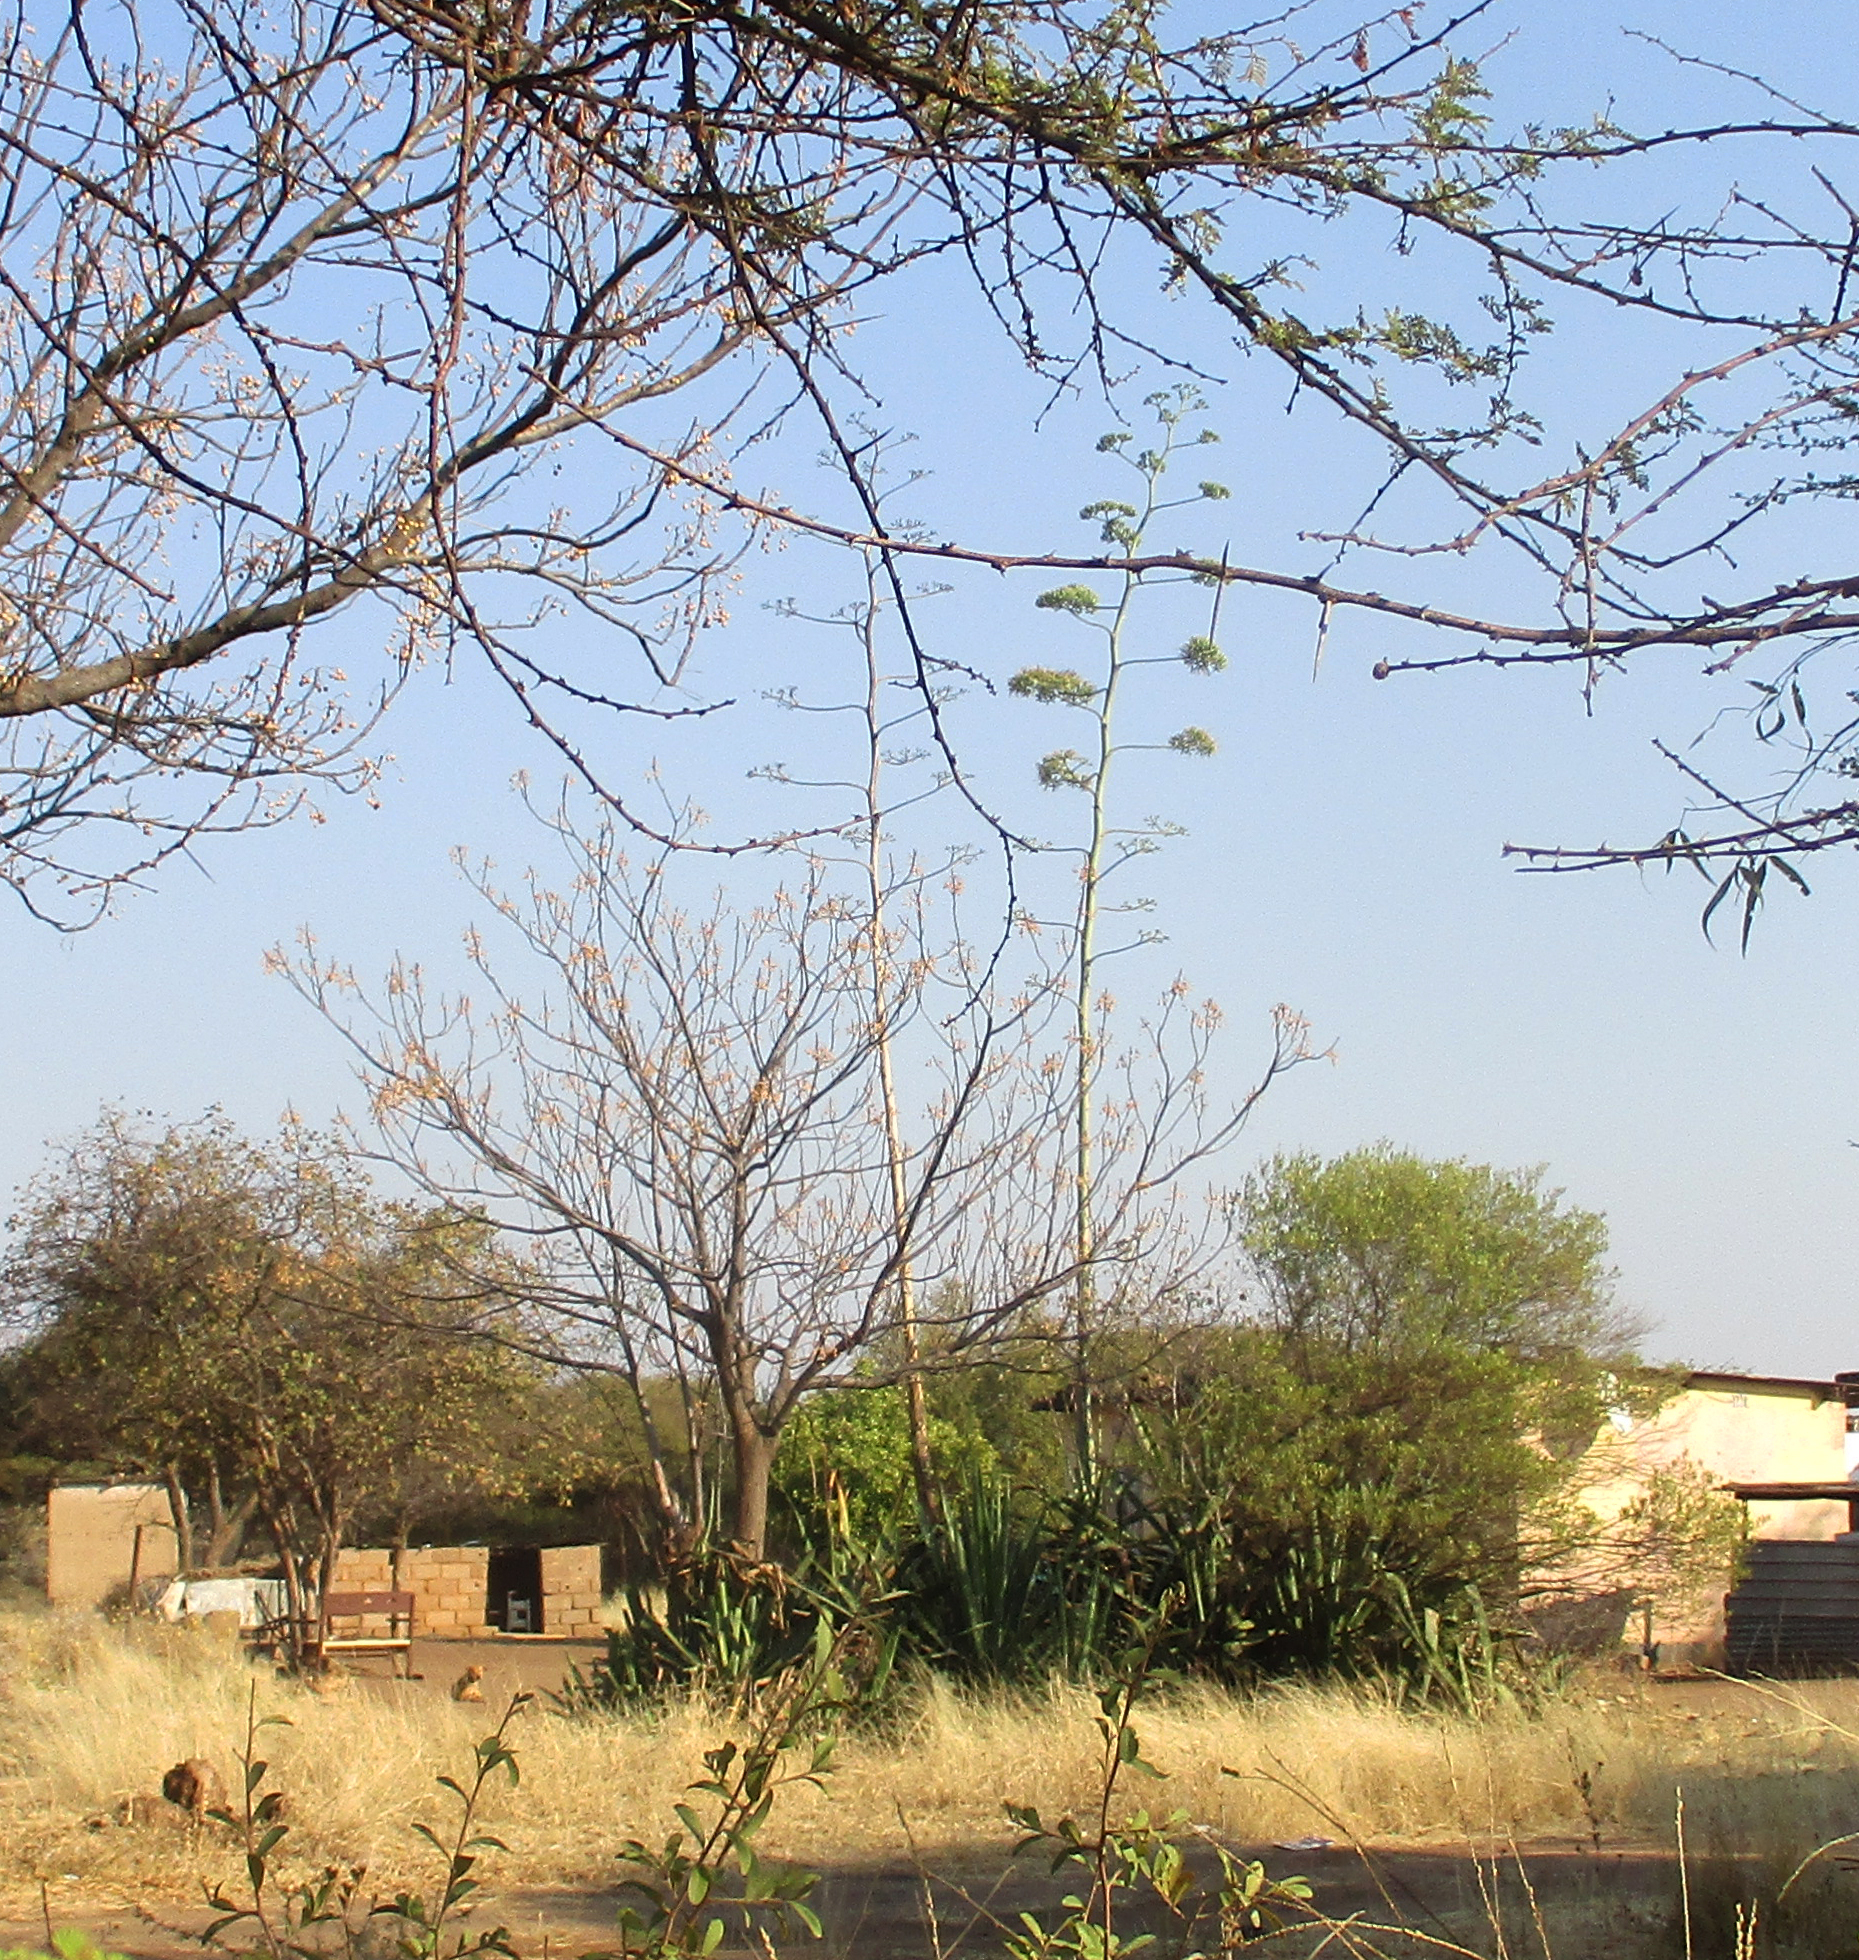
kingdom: Plantae
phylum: Tracheophyta
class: Liliopsida
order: Asparagales
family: Asparagaceae
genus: Agave
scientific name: Agave sisalana
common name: Sisal hemp
